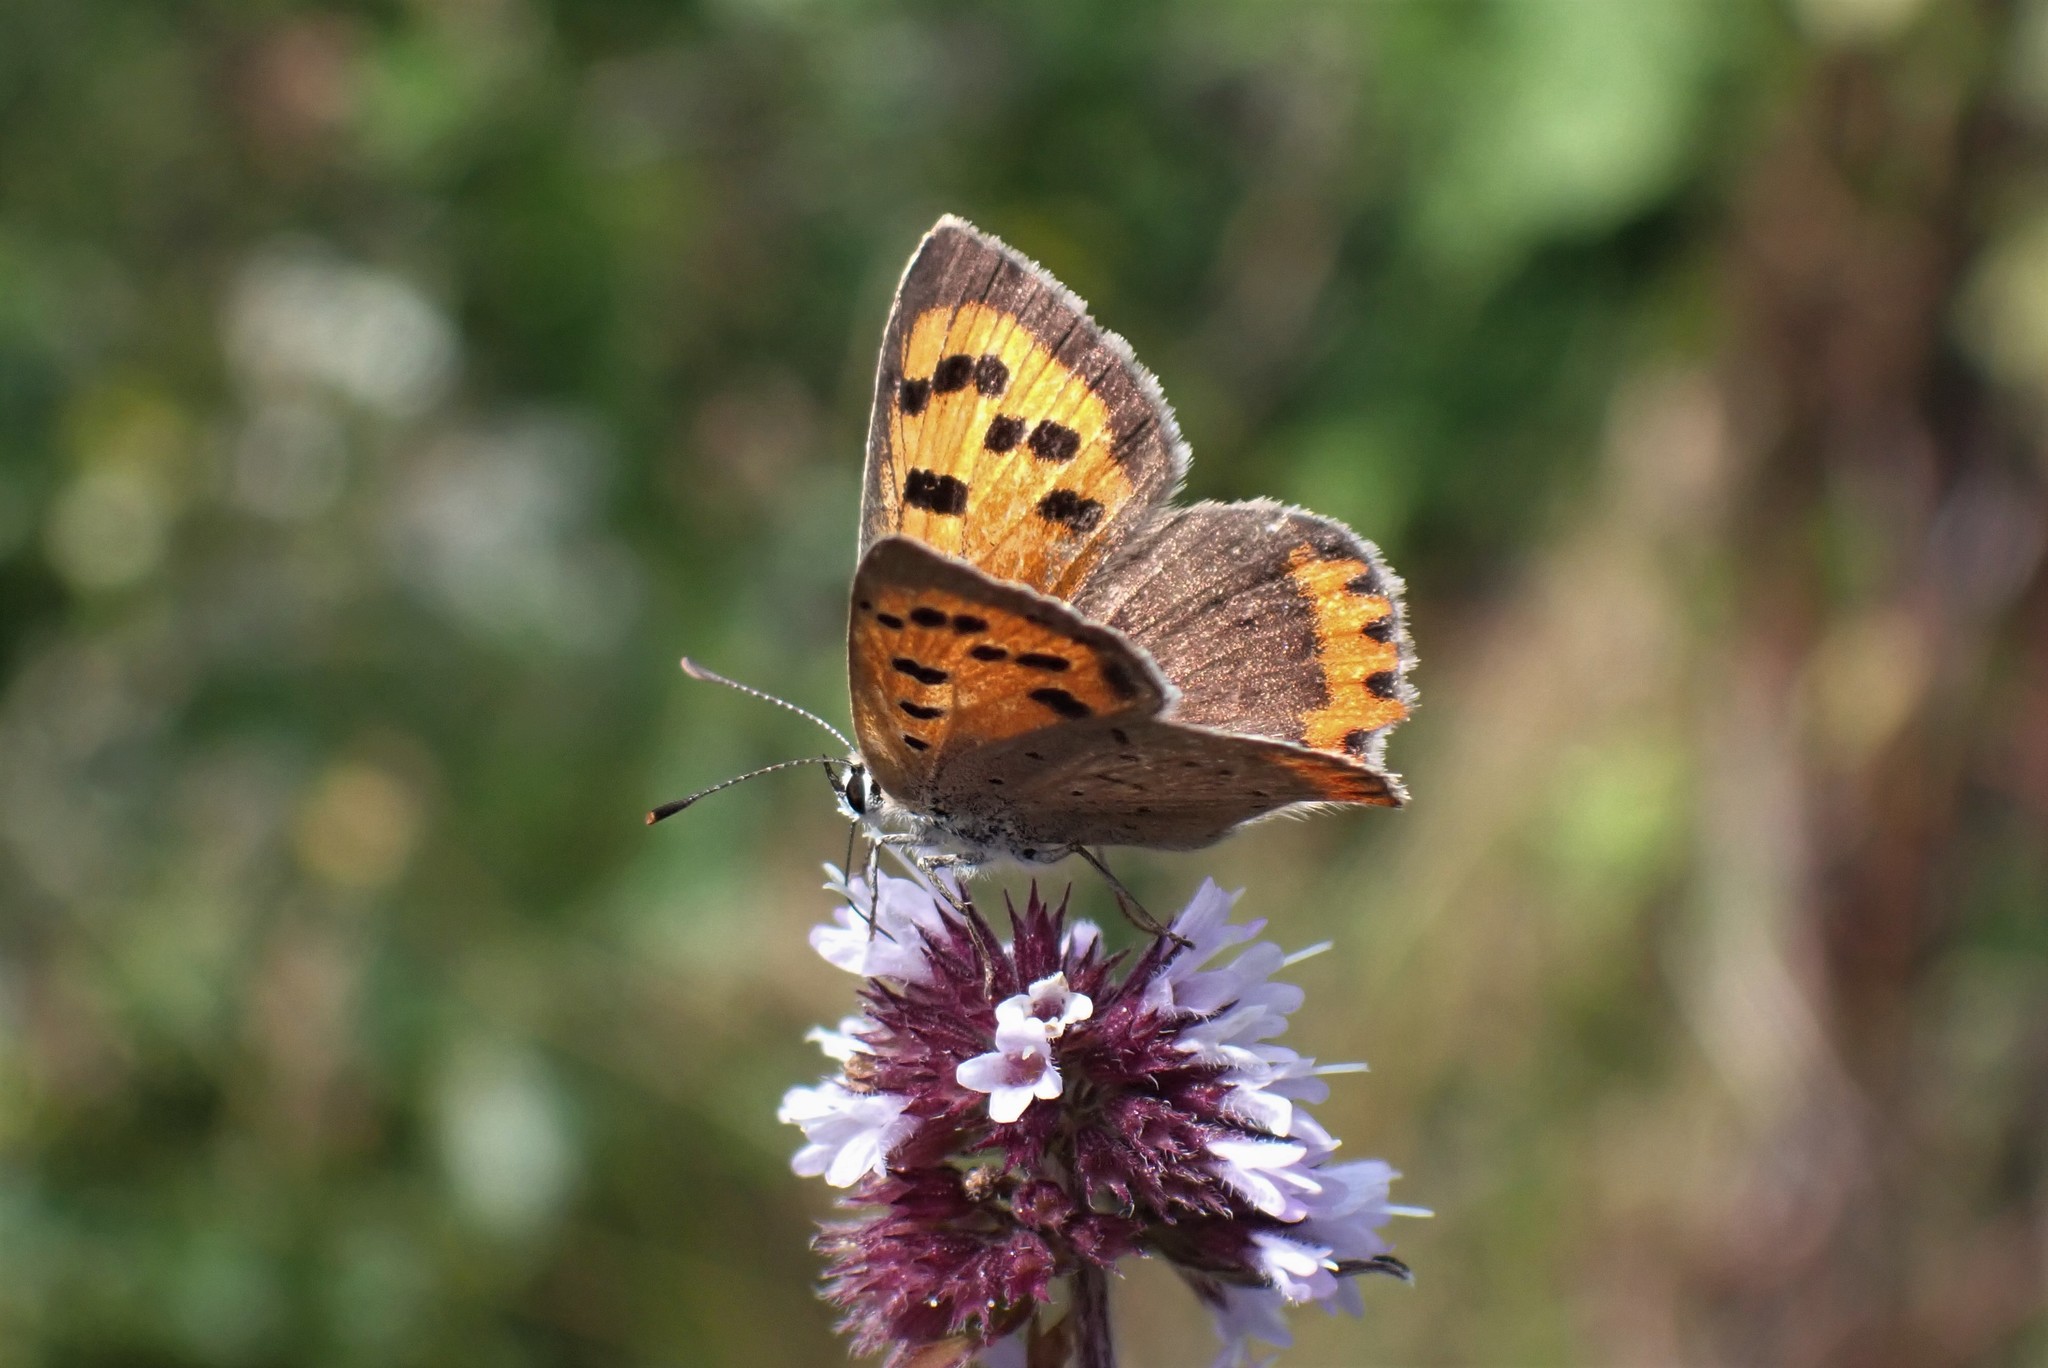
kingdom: Animalia
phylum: Arthropoda
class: Insecta
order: Lepidoptera
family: Lycaenidae
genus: Lycaena
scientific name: Lycaena phlaeas
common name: Small copper
